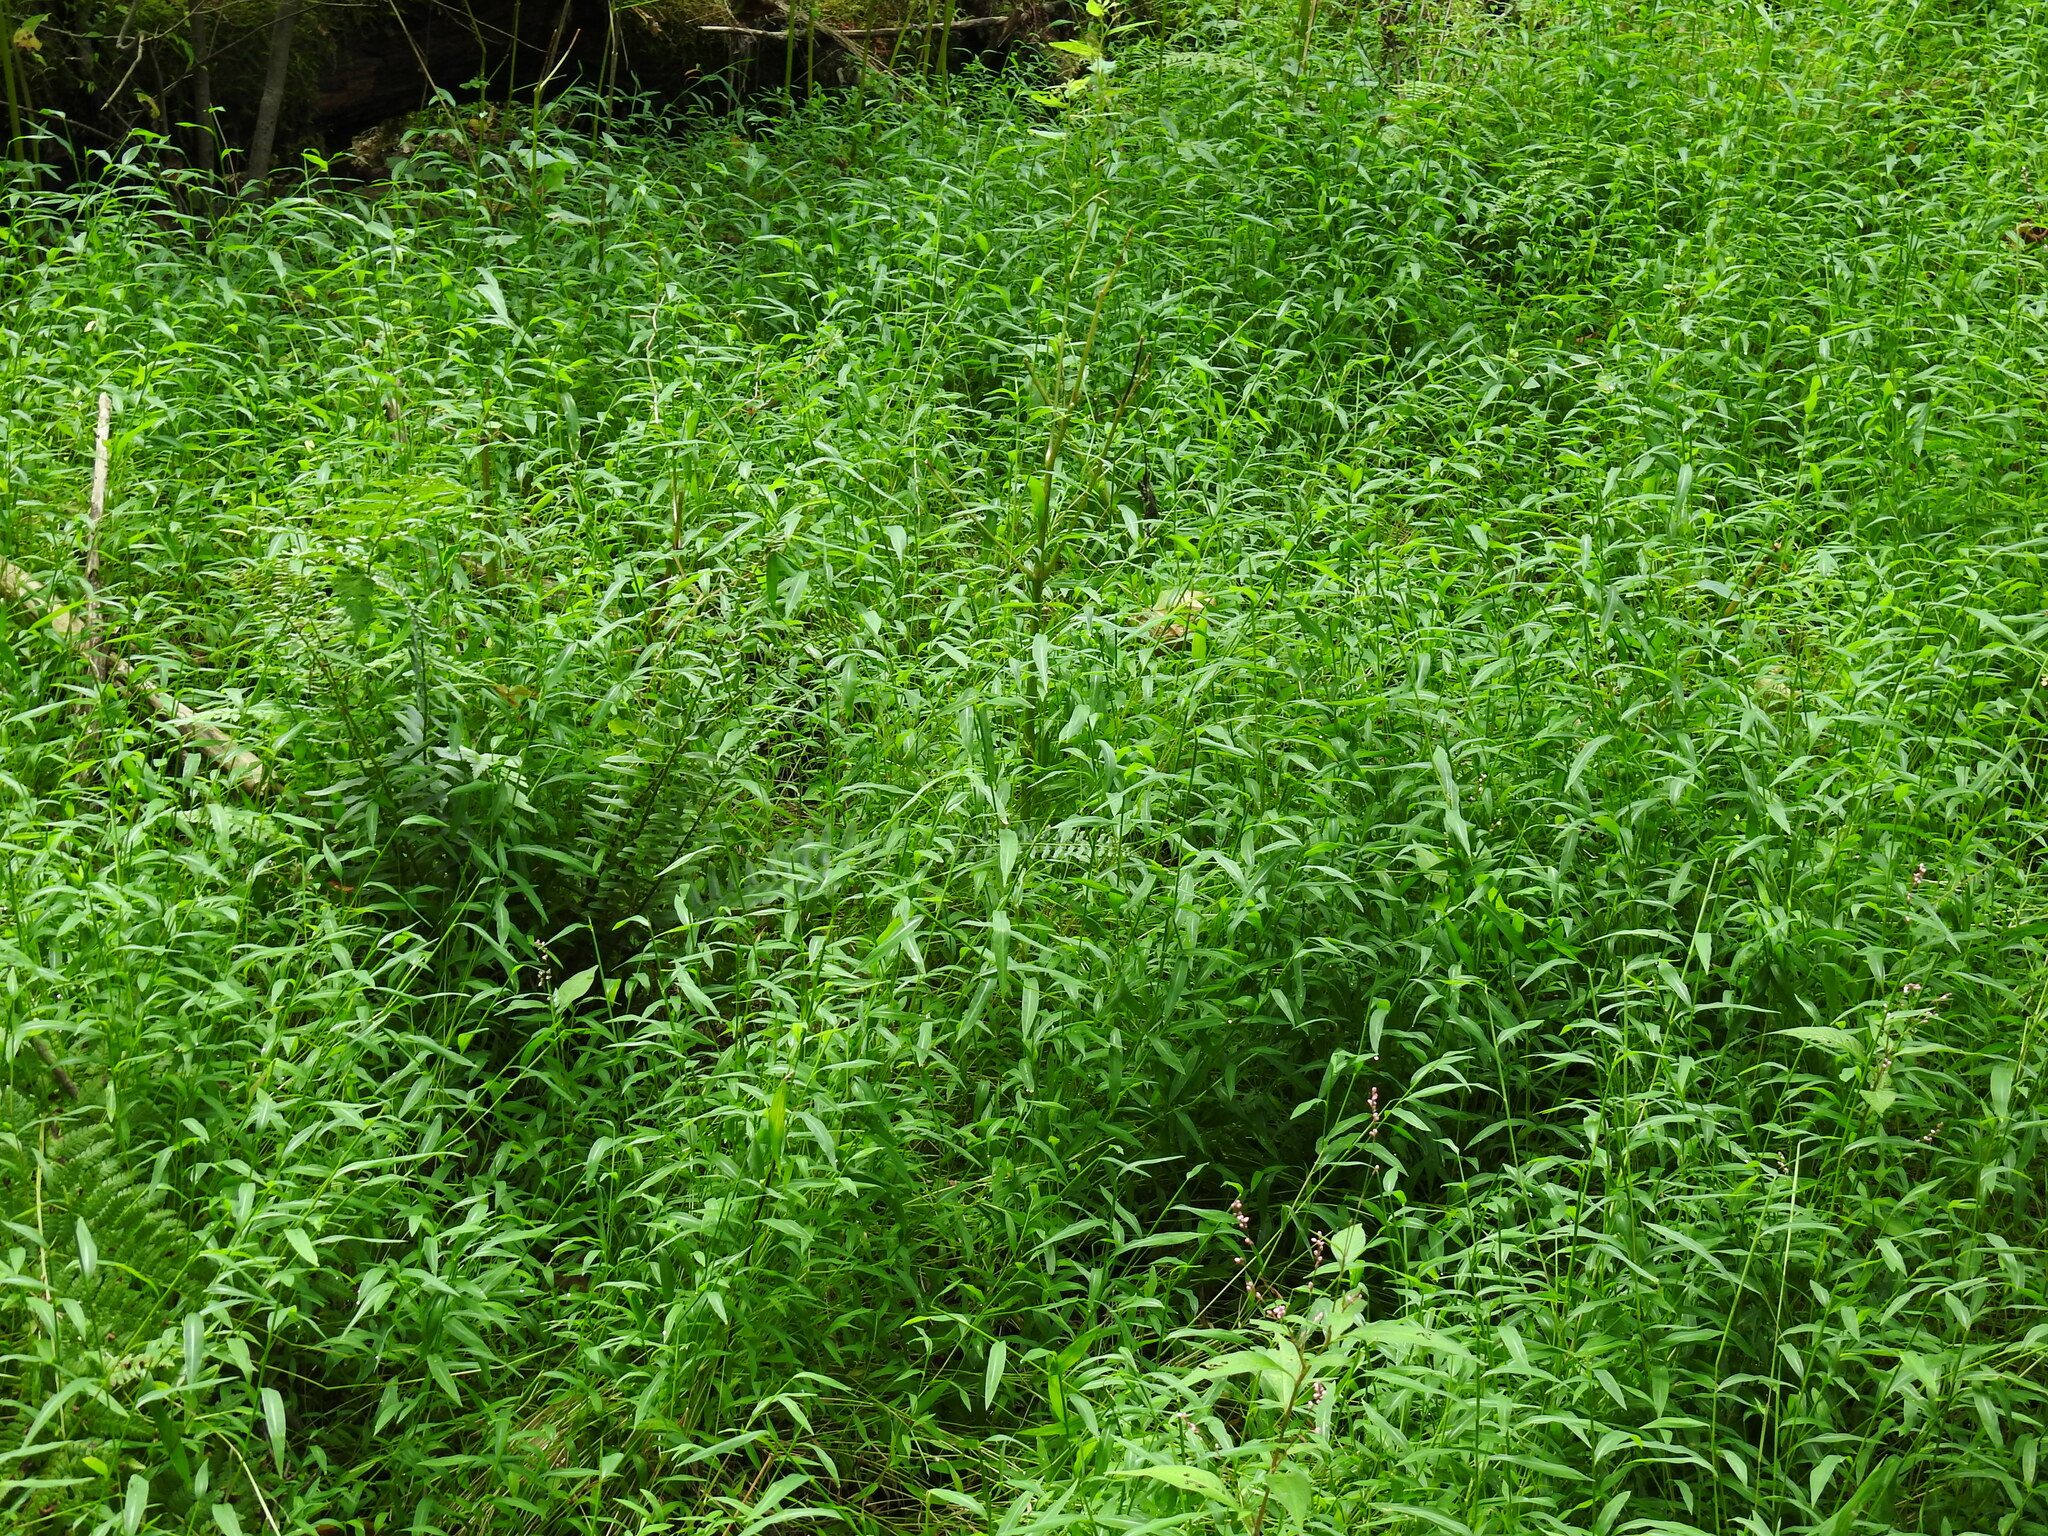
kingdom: Plantae
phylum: Tracheophyta
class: Liliopsida
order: Poales
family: Poaceae
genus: Microstegium
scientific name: Microstegium vimineum
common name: Japanese stiltgrass
